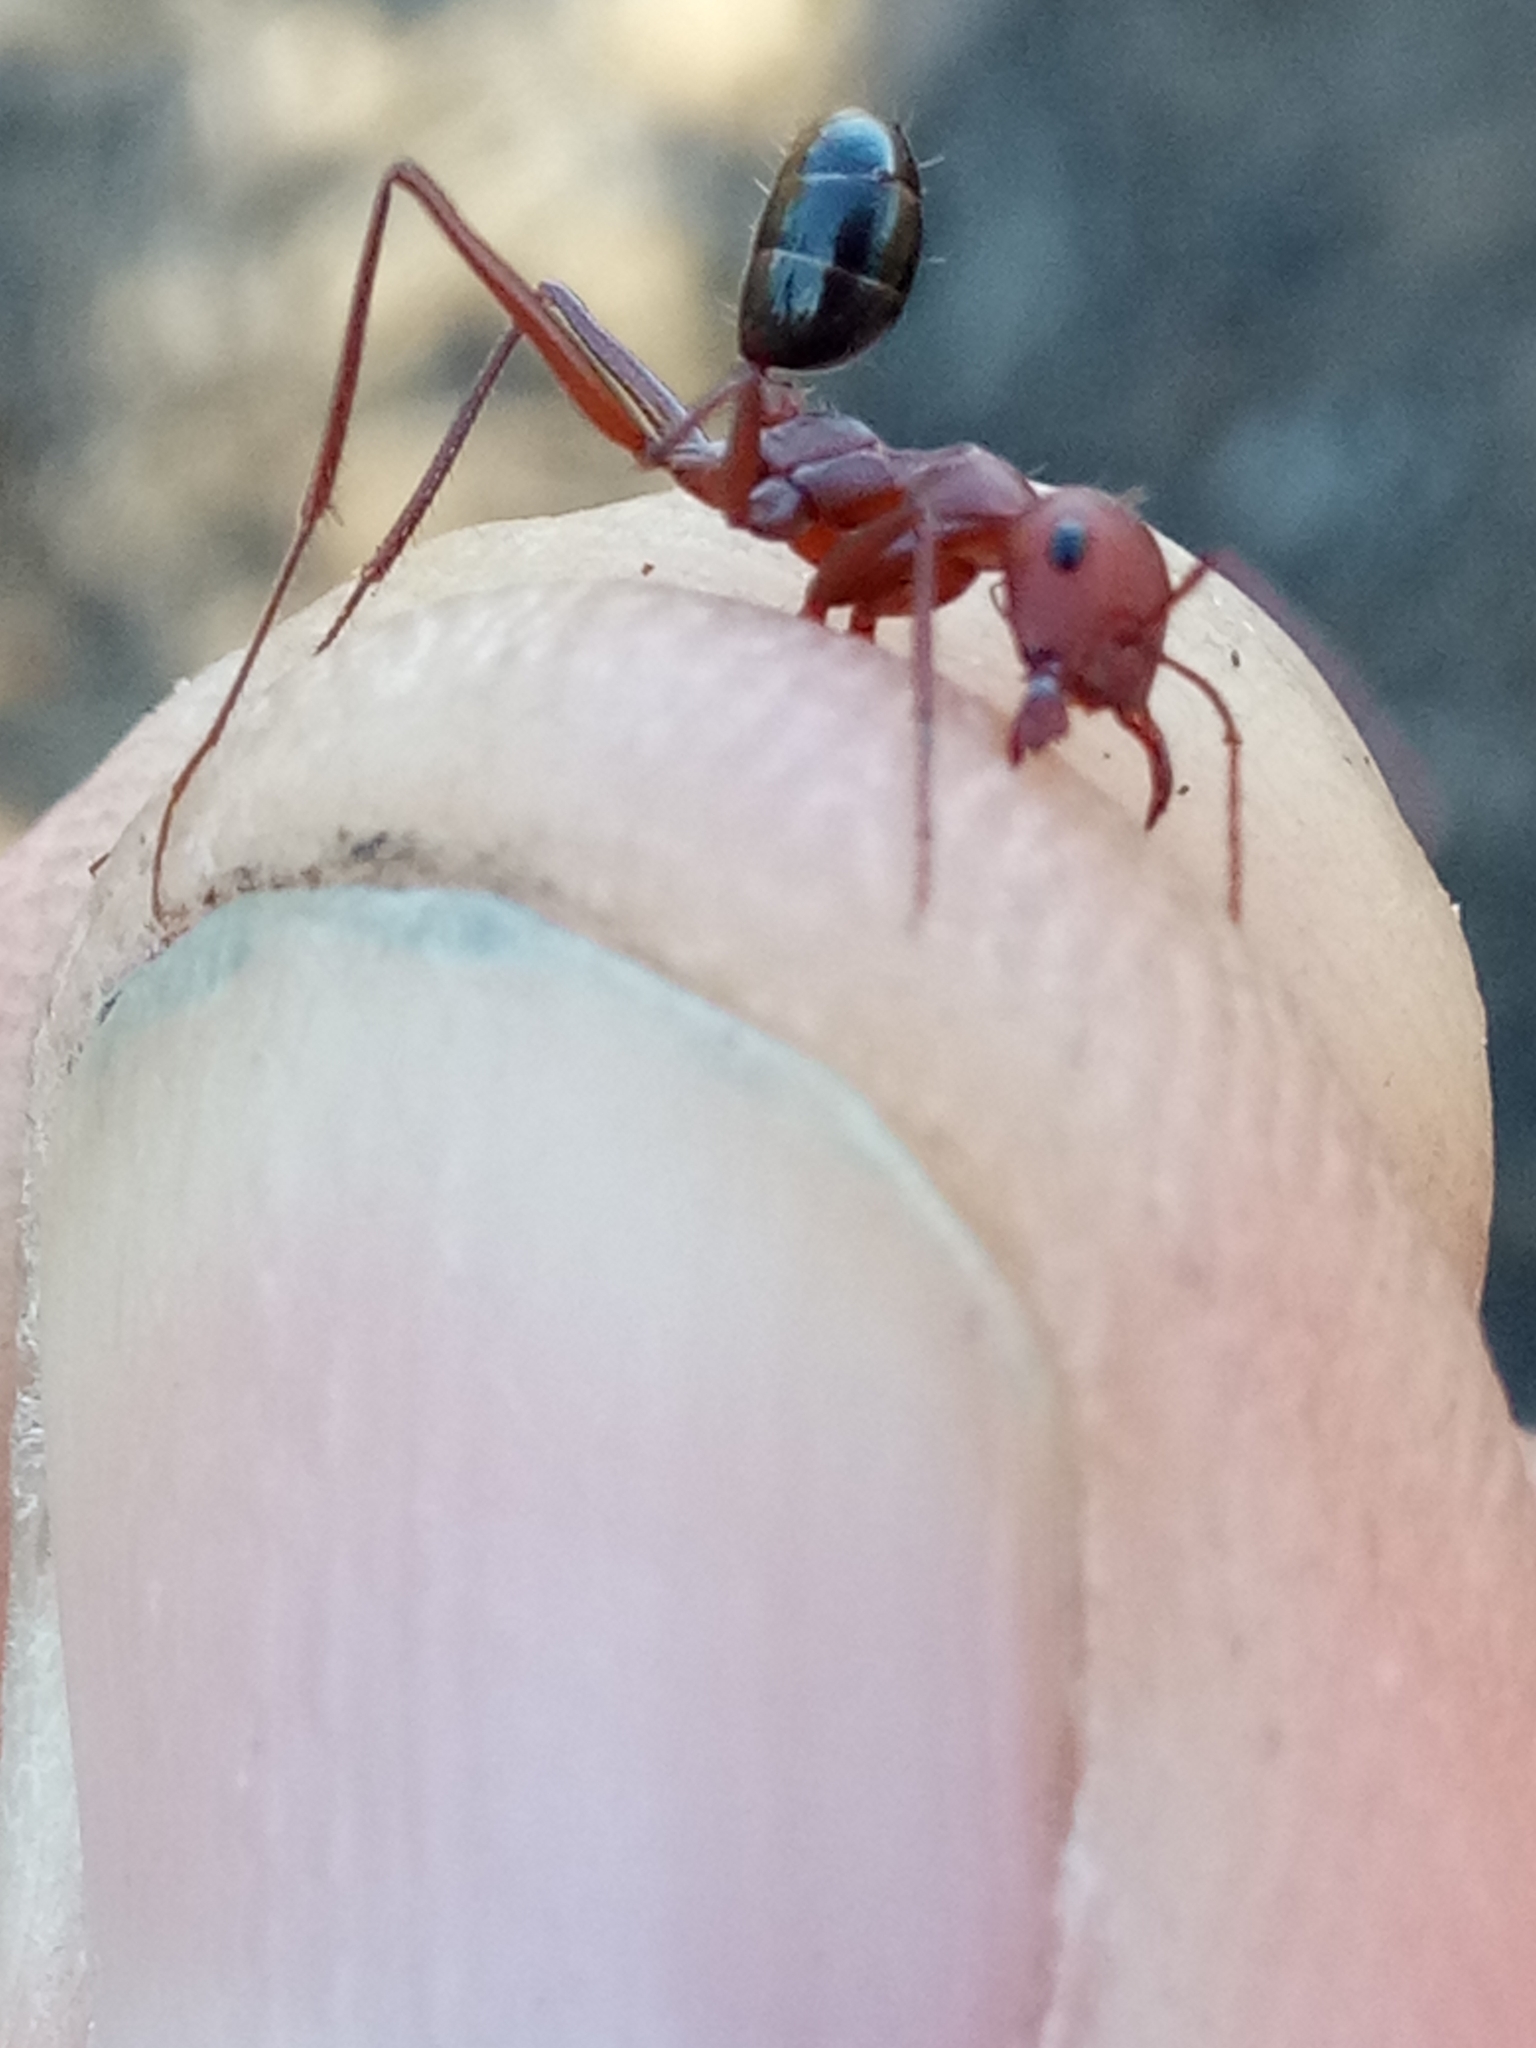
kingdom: Animalia
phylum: Arthropoda
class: Insecta
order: Hymenoptera
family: Formicidae
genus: Cataglyphis
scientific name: Cataglyphis nodus
